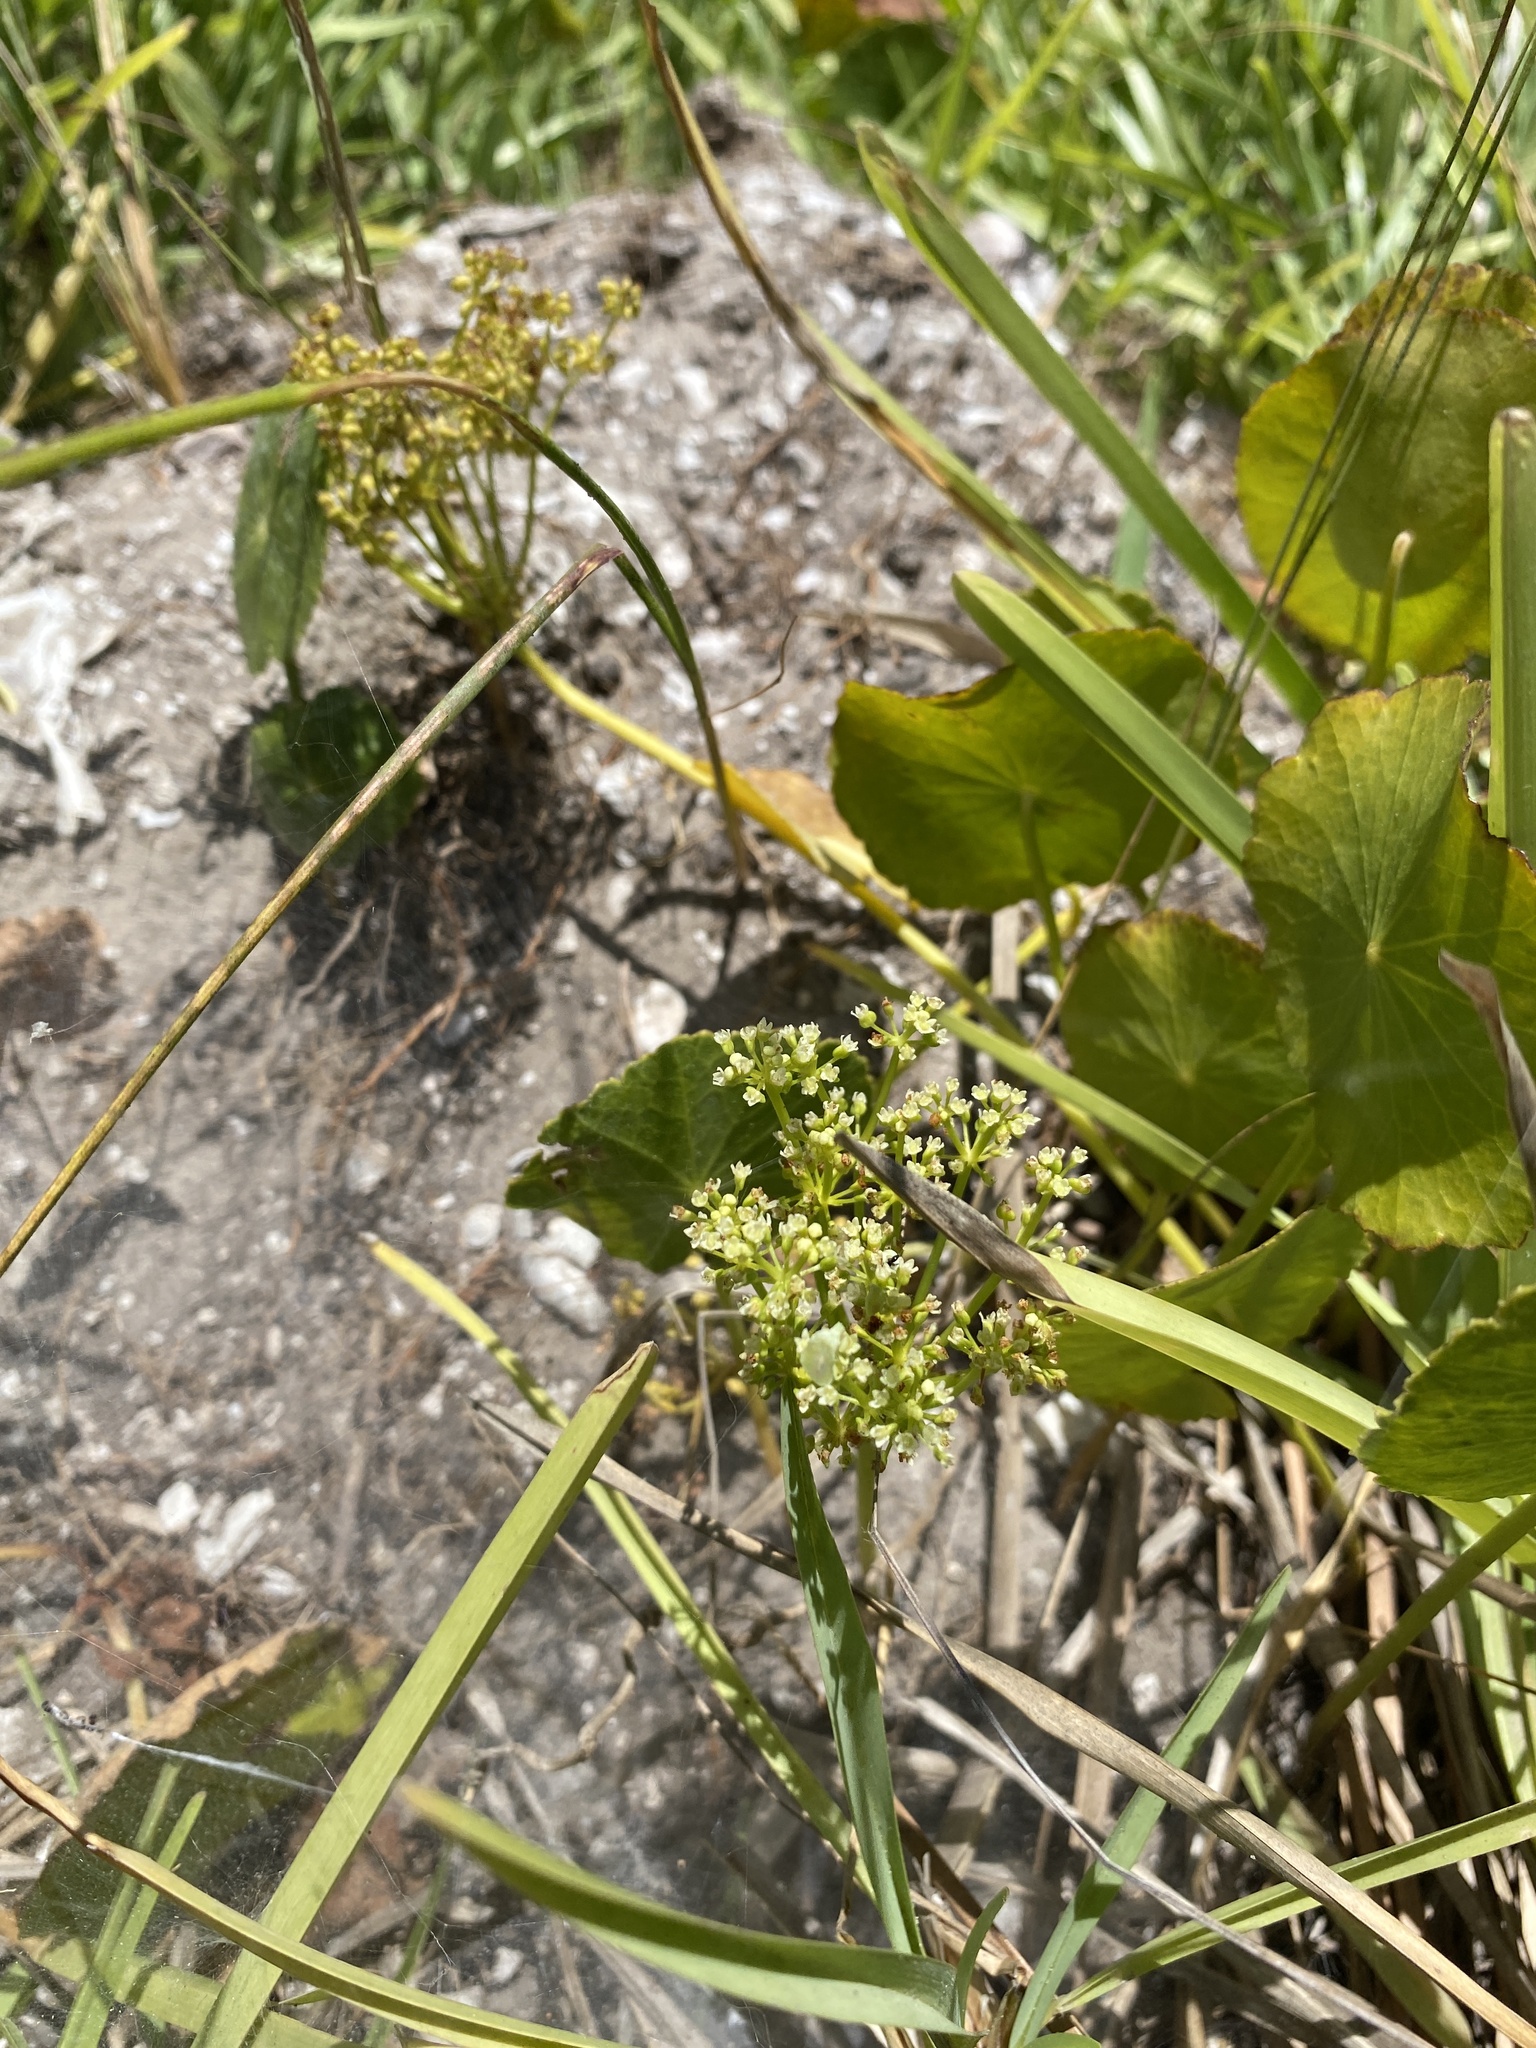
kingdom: Plantae
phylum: Tracheophyta
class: Magnoliopsida
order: Apiales
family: Araliaceae
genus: Hydrocotyle
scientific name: Hydrocotyle bonariensis
